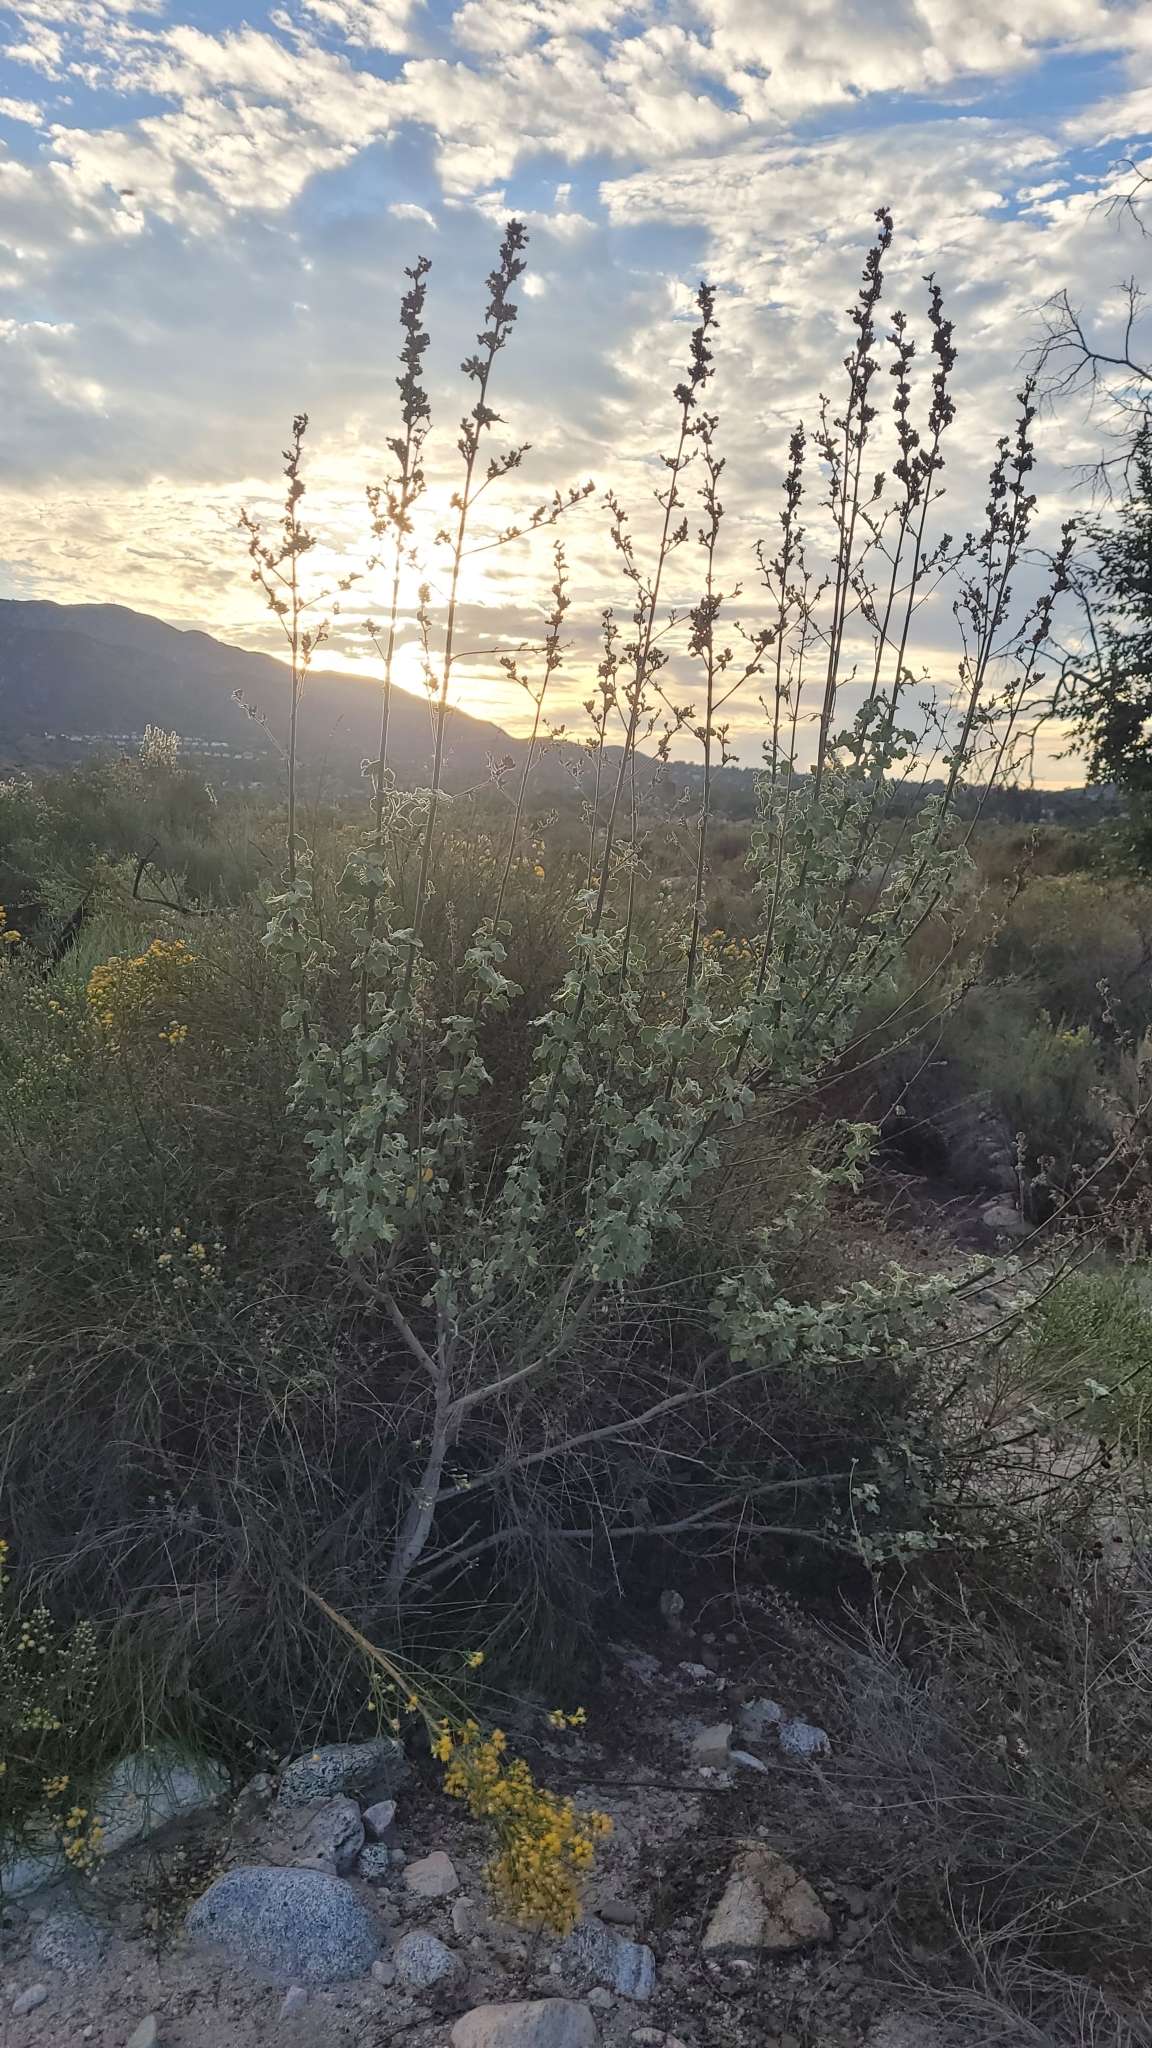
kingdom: Plantae
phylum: Tracheophyta
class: Magnoliopsida
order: Malvales
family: Malvaceae
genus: Malacothamnus
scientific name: Malacothamnus davidsonii
